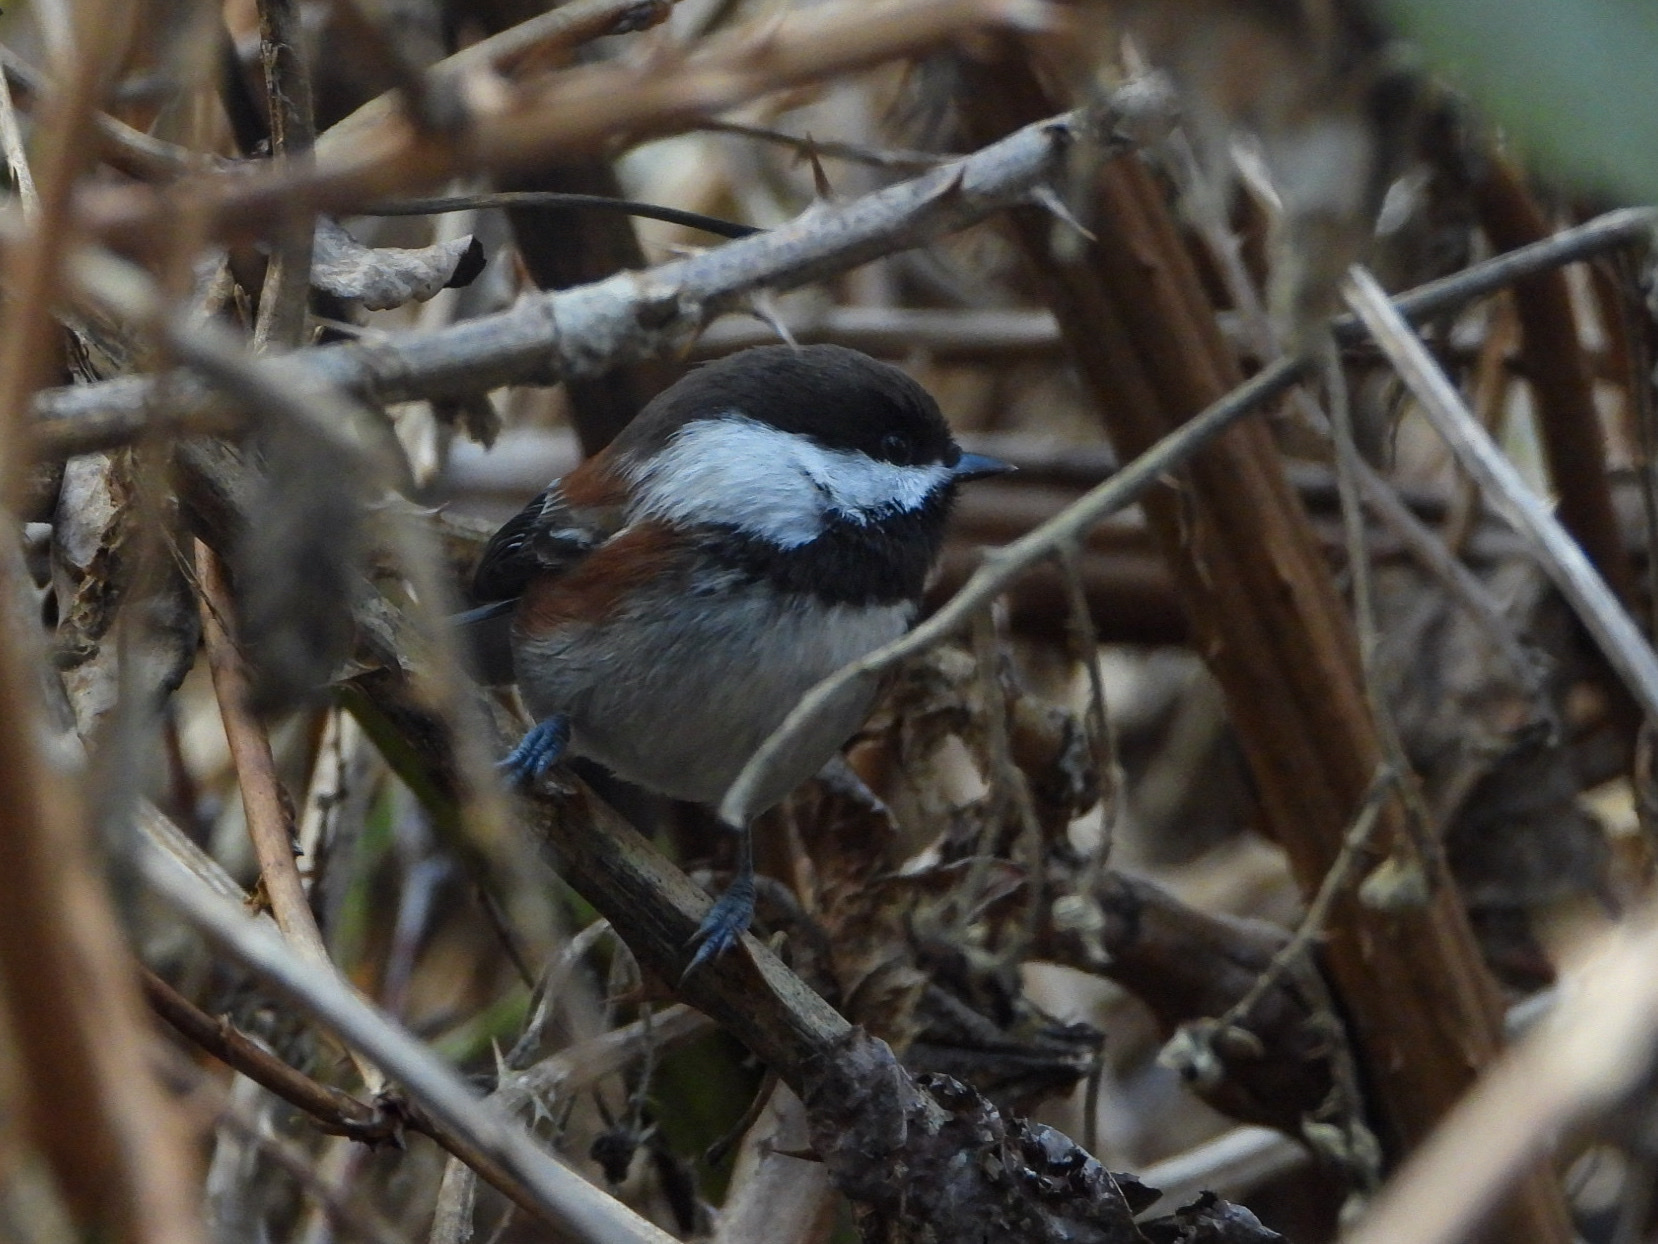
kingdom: Animalia
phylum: Chordata
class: Aves
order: Passeriformes
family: Paridae
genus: Poecile
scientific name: Poecile rufescens
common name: Chestnut-backed chickadee
